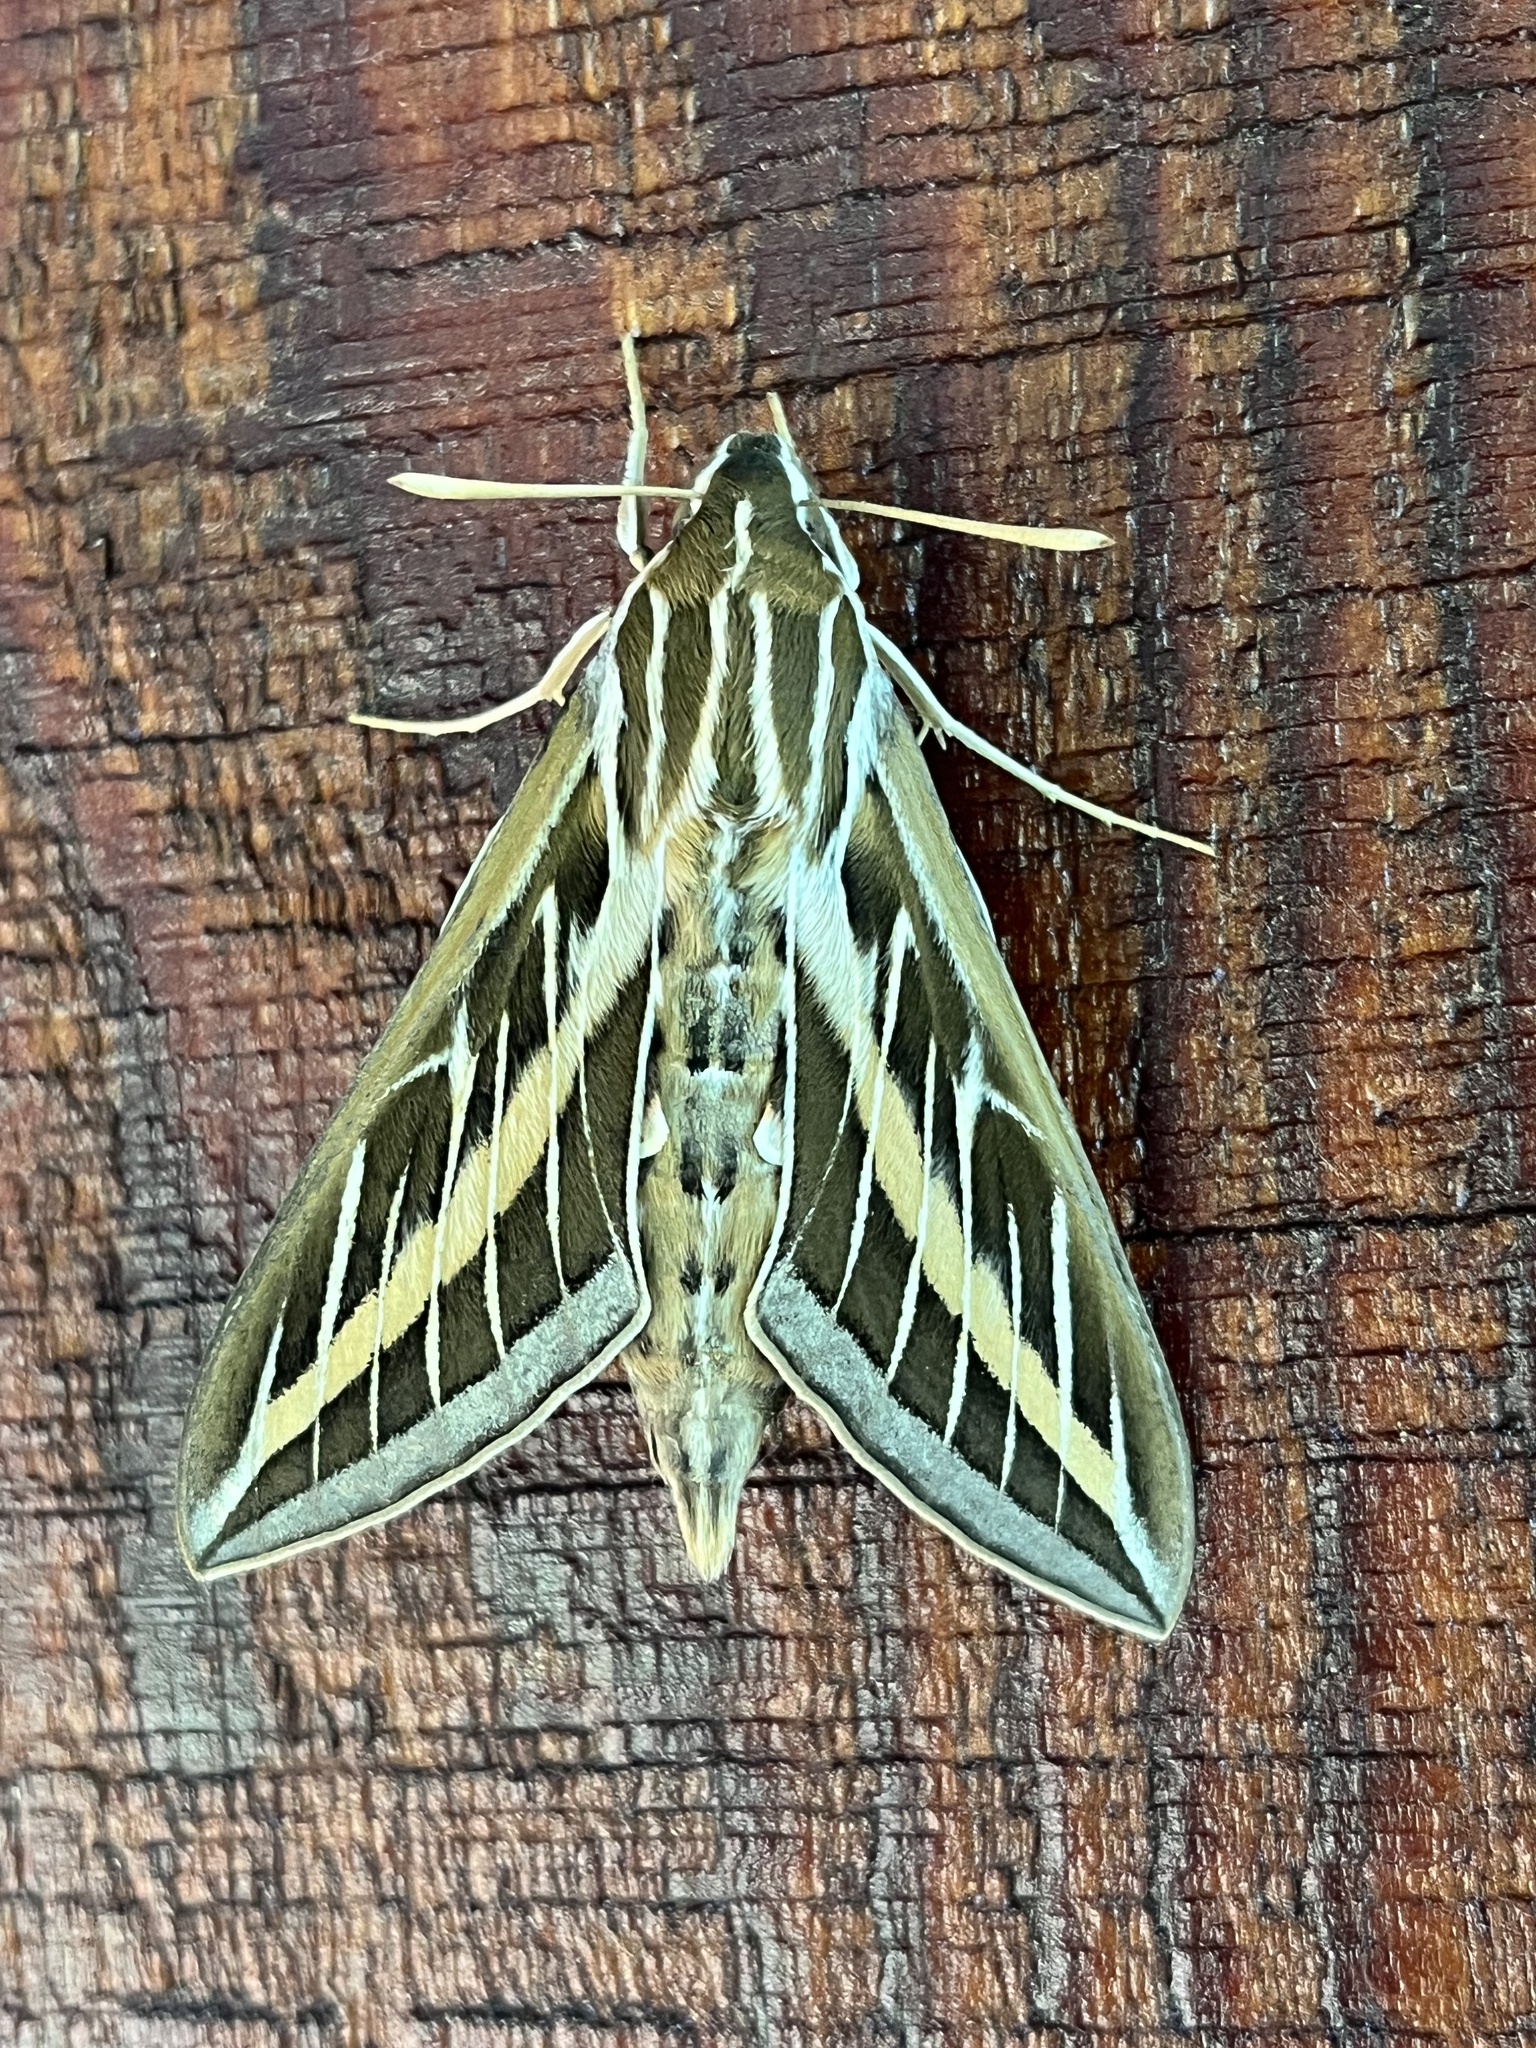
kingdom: Animalia
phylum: Arthropoda
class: Insecta
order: Lepidoptera
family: Sphingidae
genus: Hyles
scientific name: Hyles lineata
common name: White-lined sphinx
